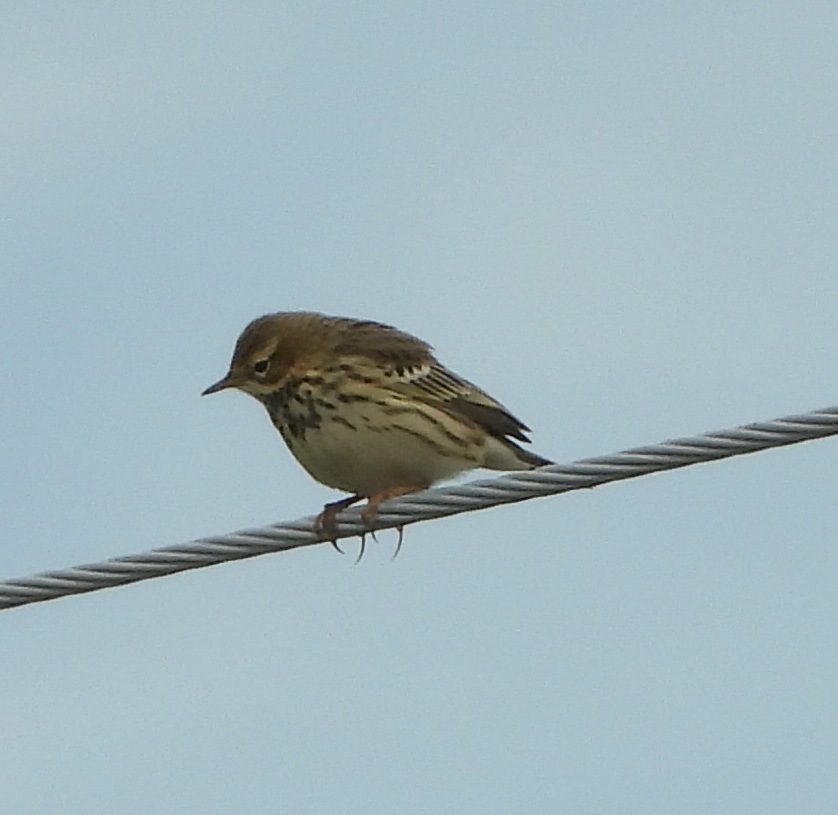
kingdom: Animalia
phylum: Chordata
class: Aves
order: Passeriformes
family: Motacillidae
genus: Anthus
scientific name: Anthus rubescens
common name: Buff-bellied pipit
